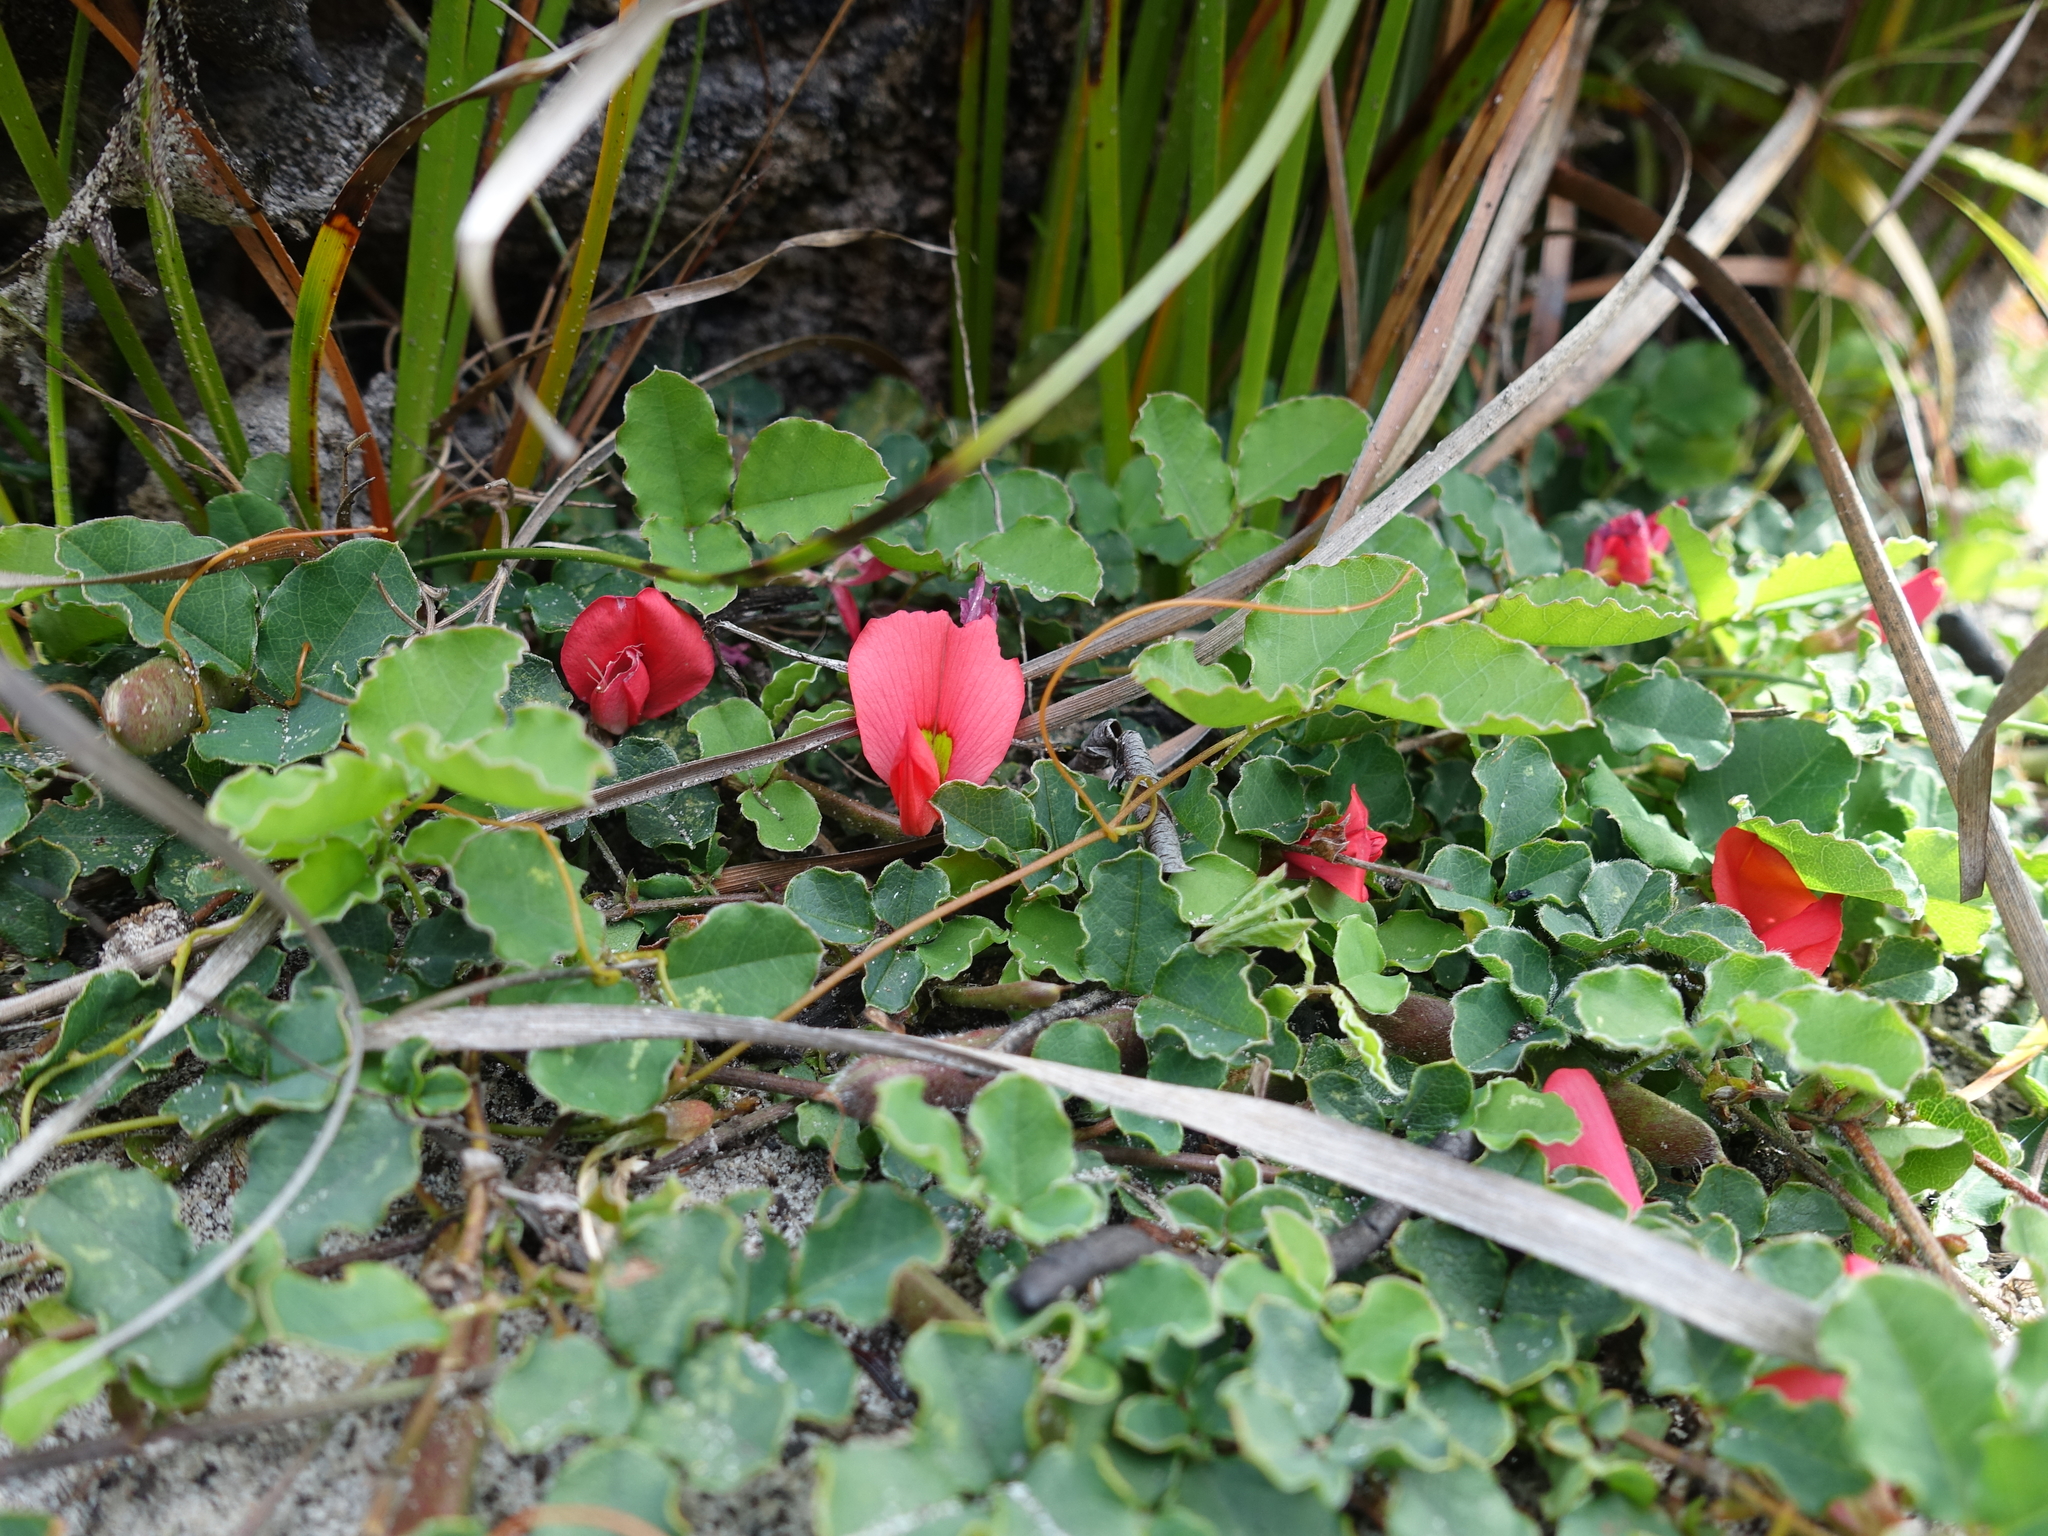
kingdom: Plantae
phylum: Tracheophyta
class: Magnoliopsida
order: Fabales
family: Fabaceae
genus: Kennedia
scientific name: Kennedia prostrata
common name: Running-postman
